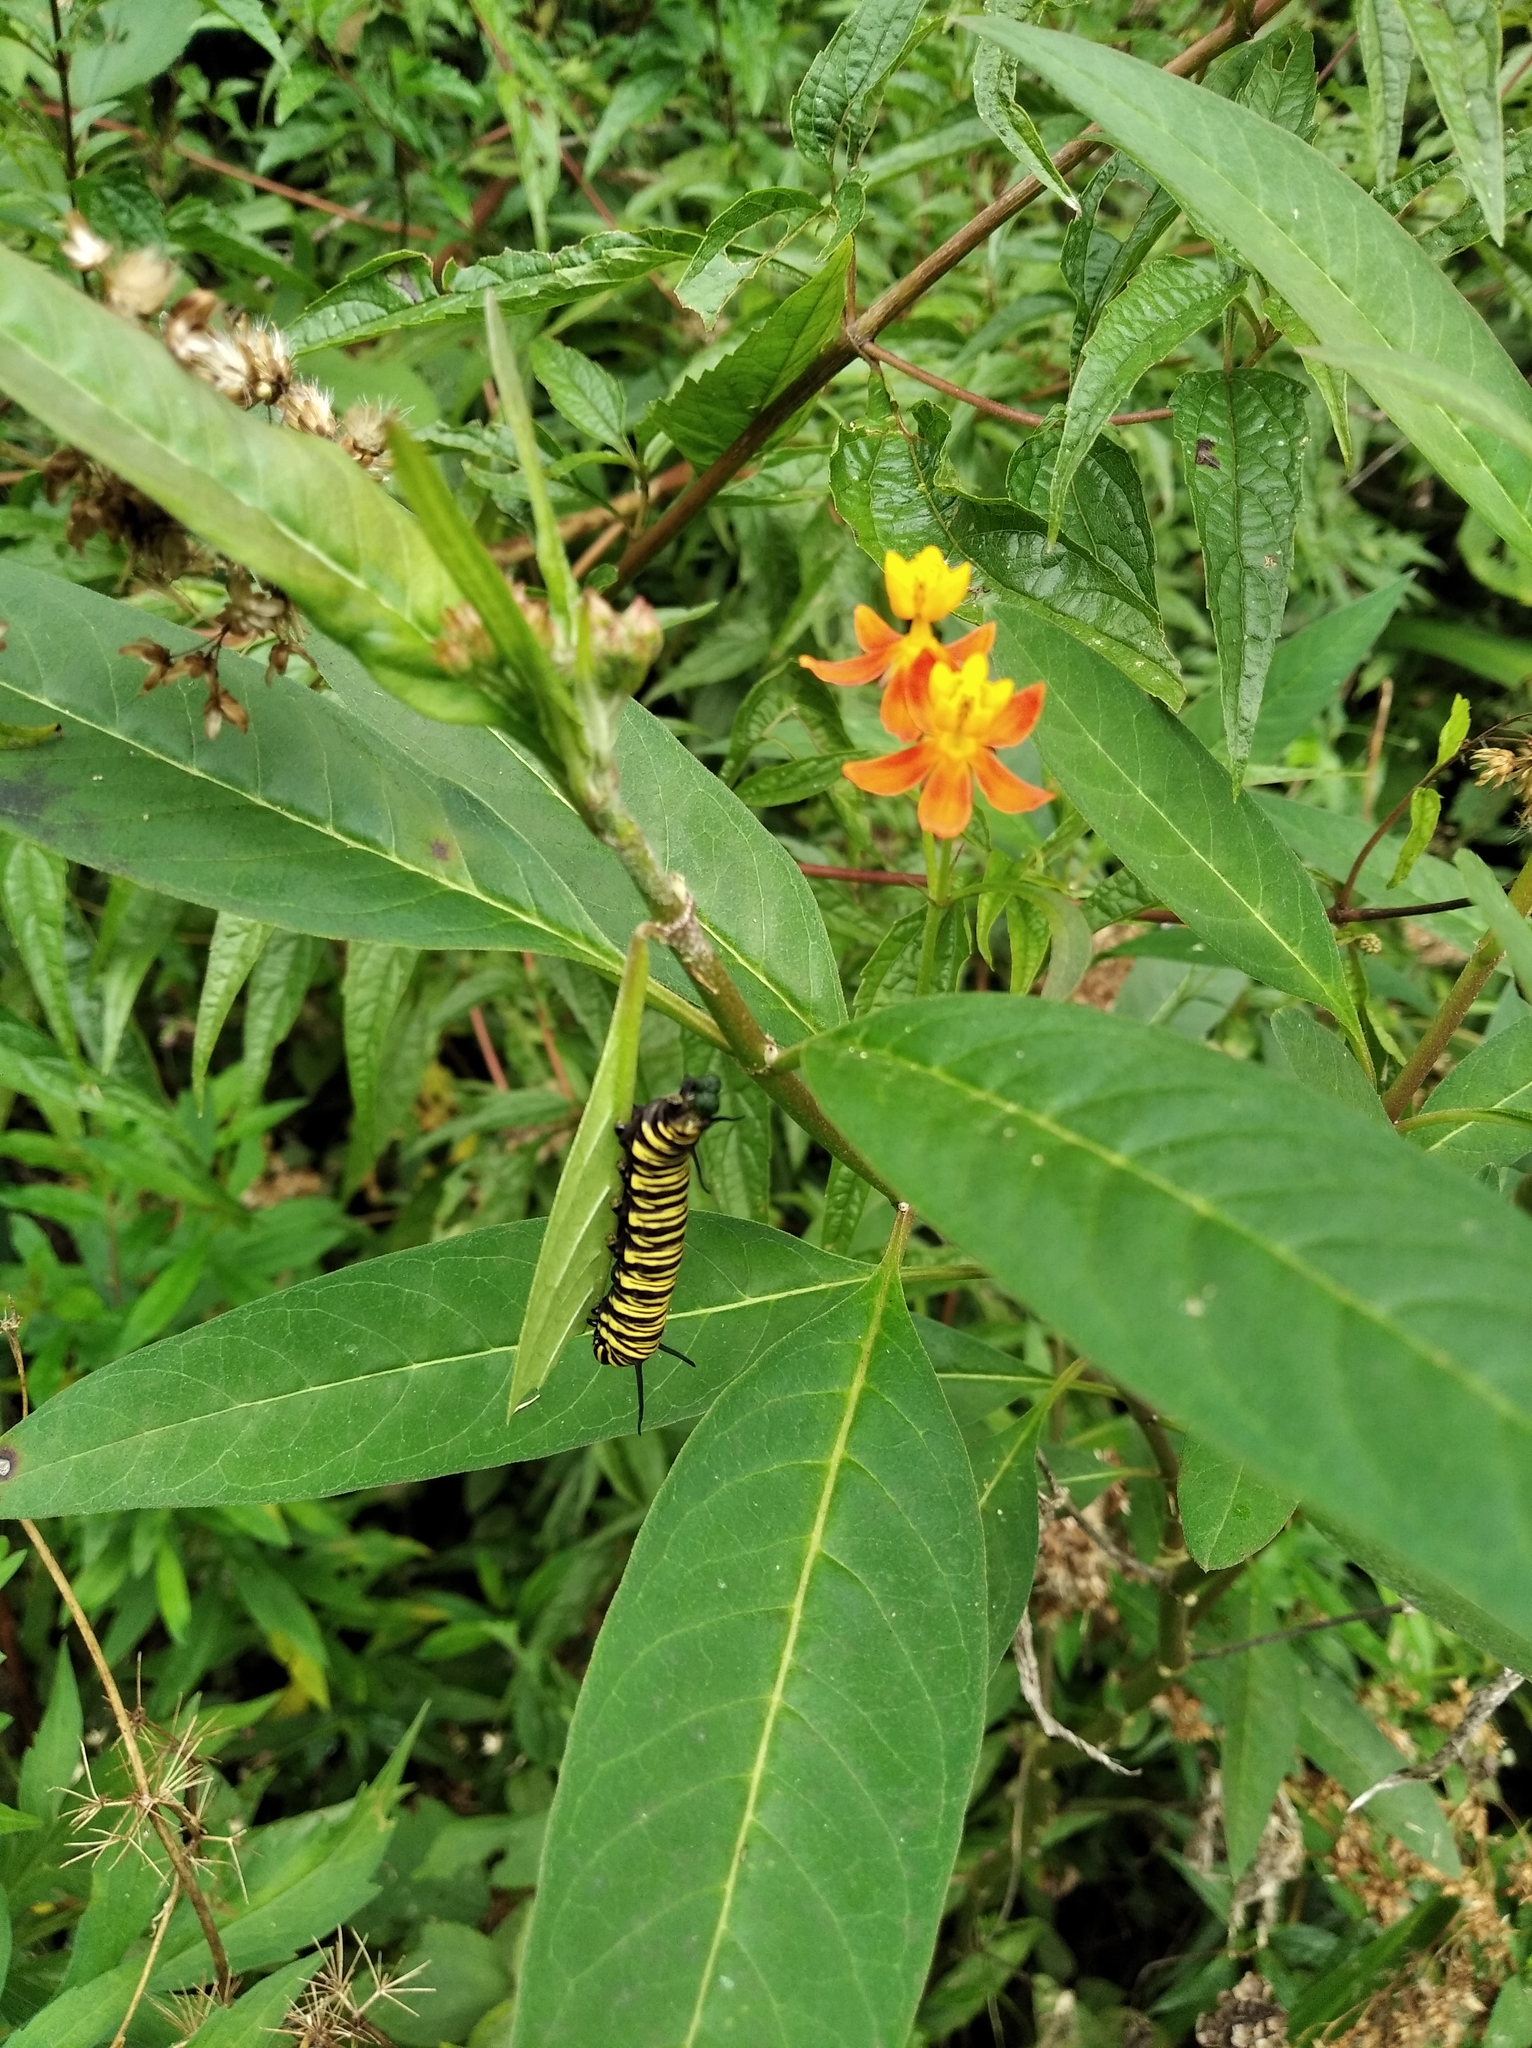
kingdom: Animalia
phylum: Arthropoda
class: Insecta
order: Lepidoptera
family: Nymphalidae
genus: Danaus
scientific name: Danaus erippus
